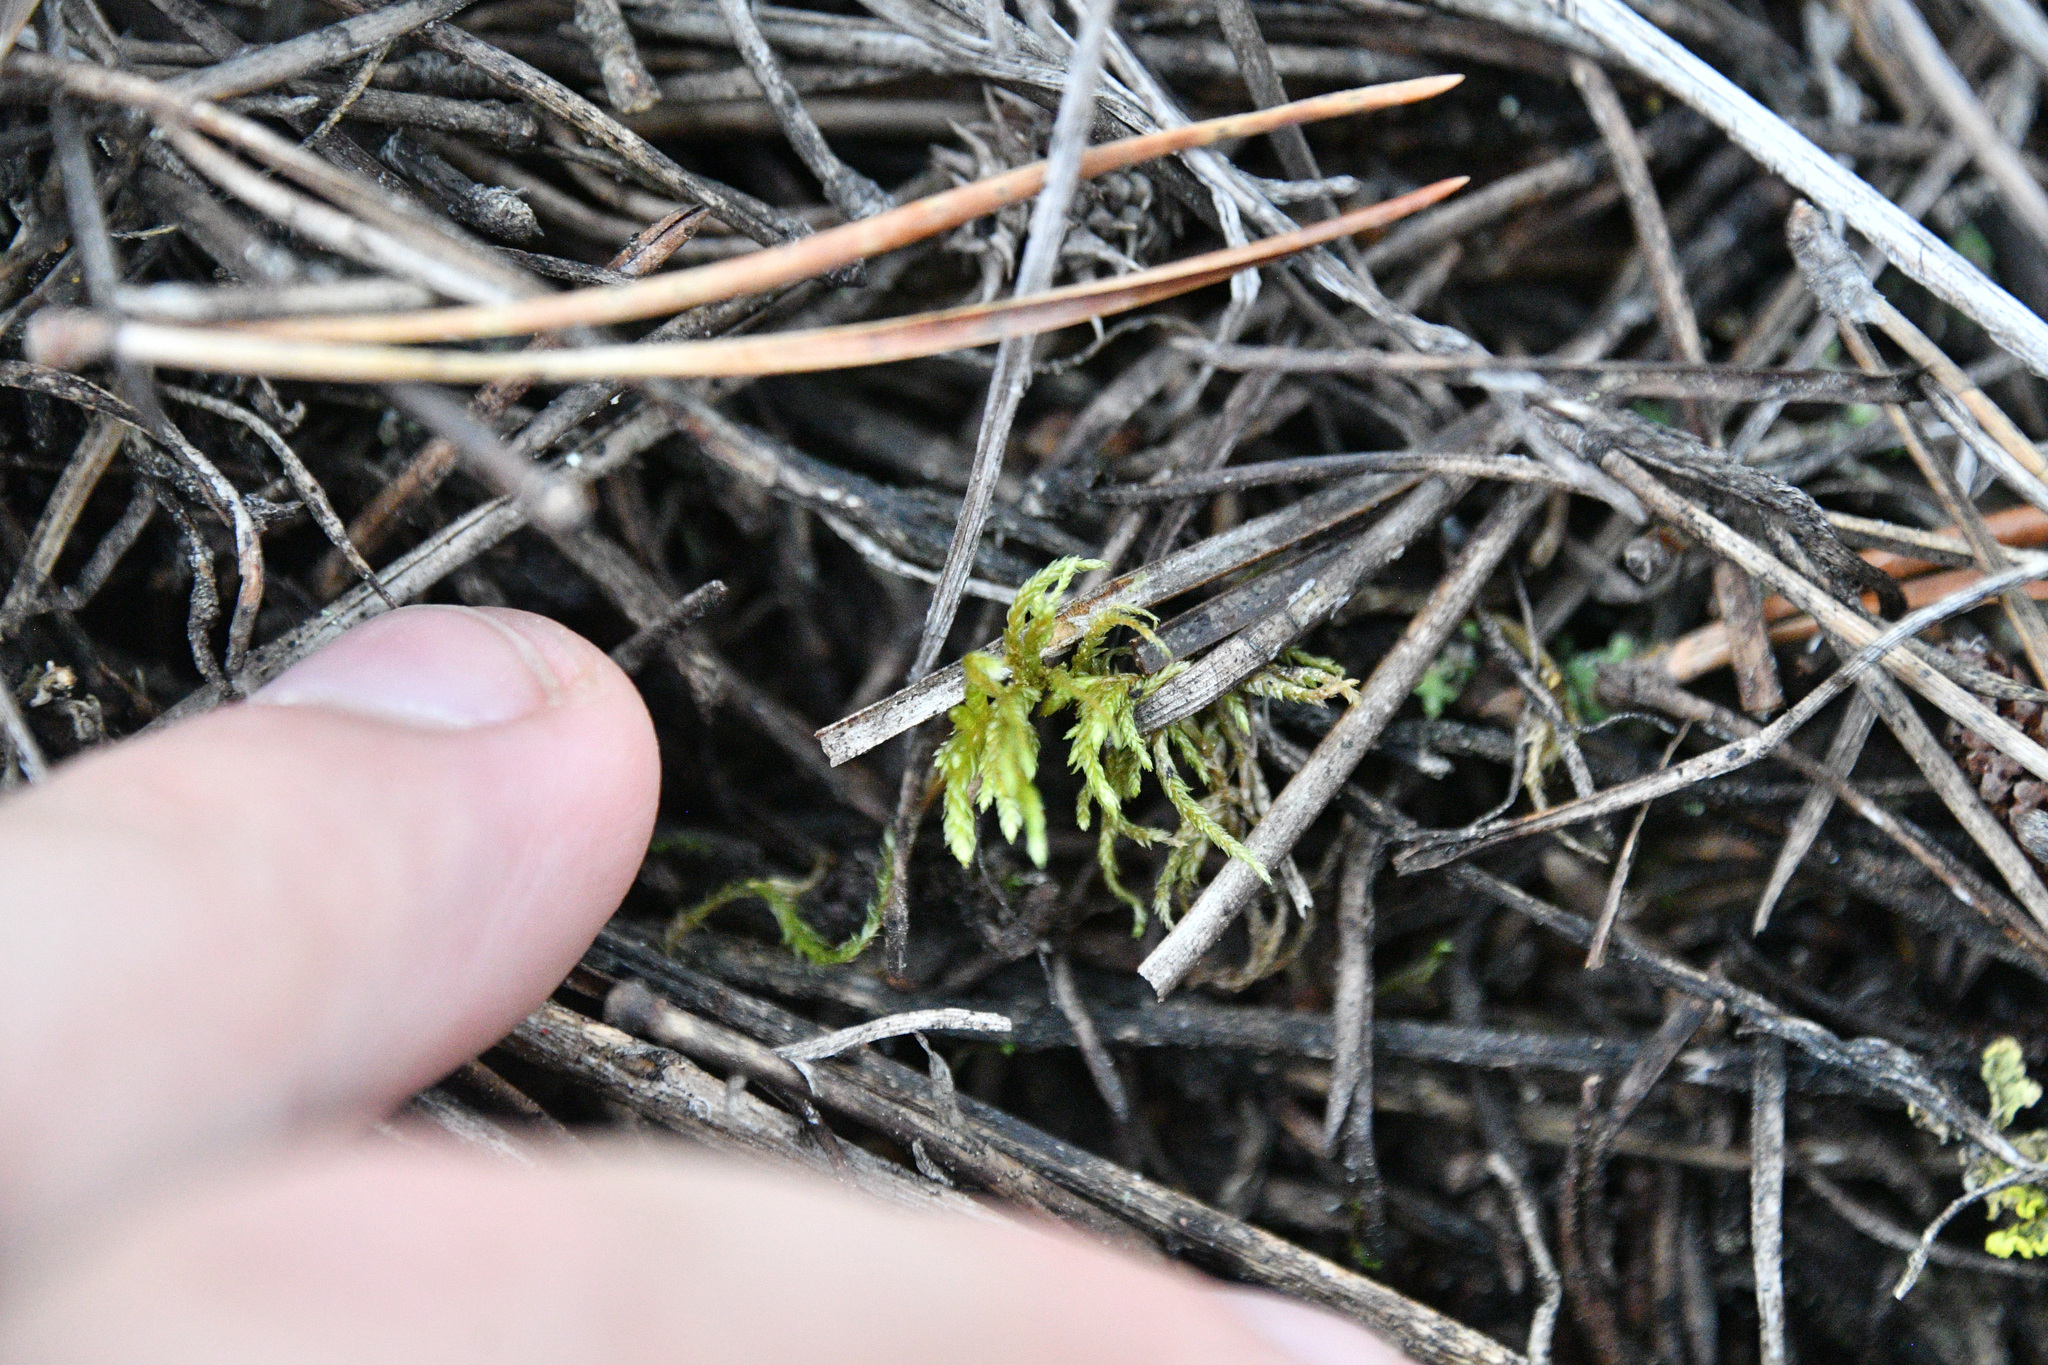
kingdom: Plantae
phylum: Bryophyta
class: Bryopsida
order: Hypnales
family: Hylocomiaceae
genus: Pleurozium
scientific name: Pleurozium schreberi
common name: Red-stemmed feather moss
